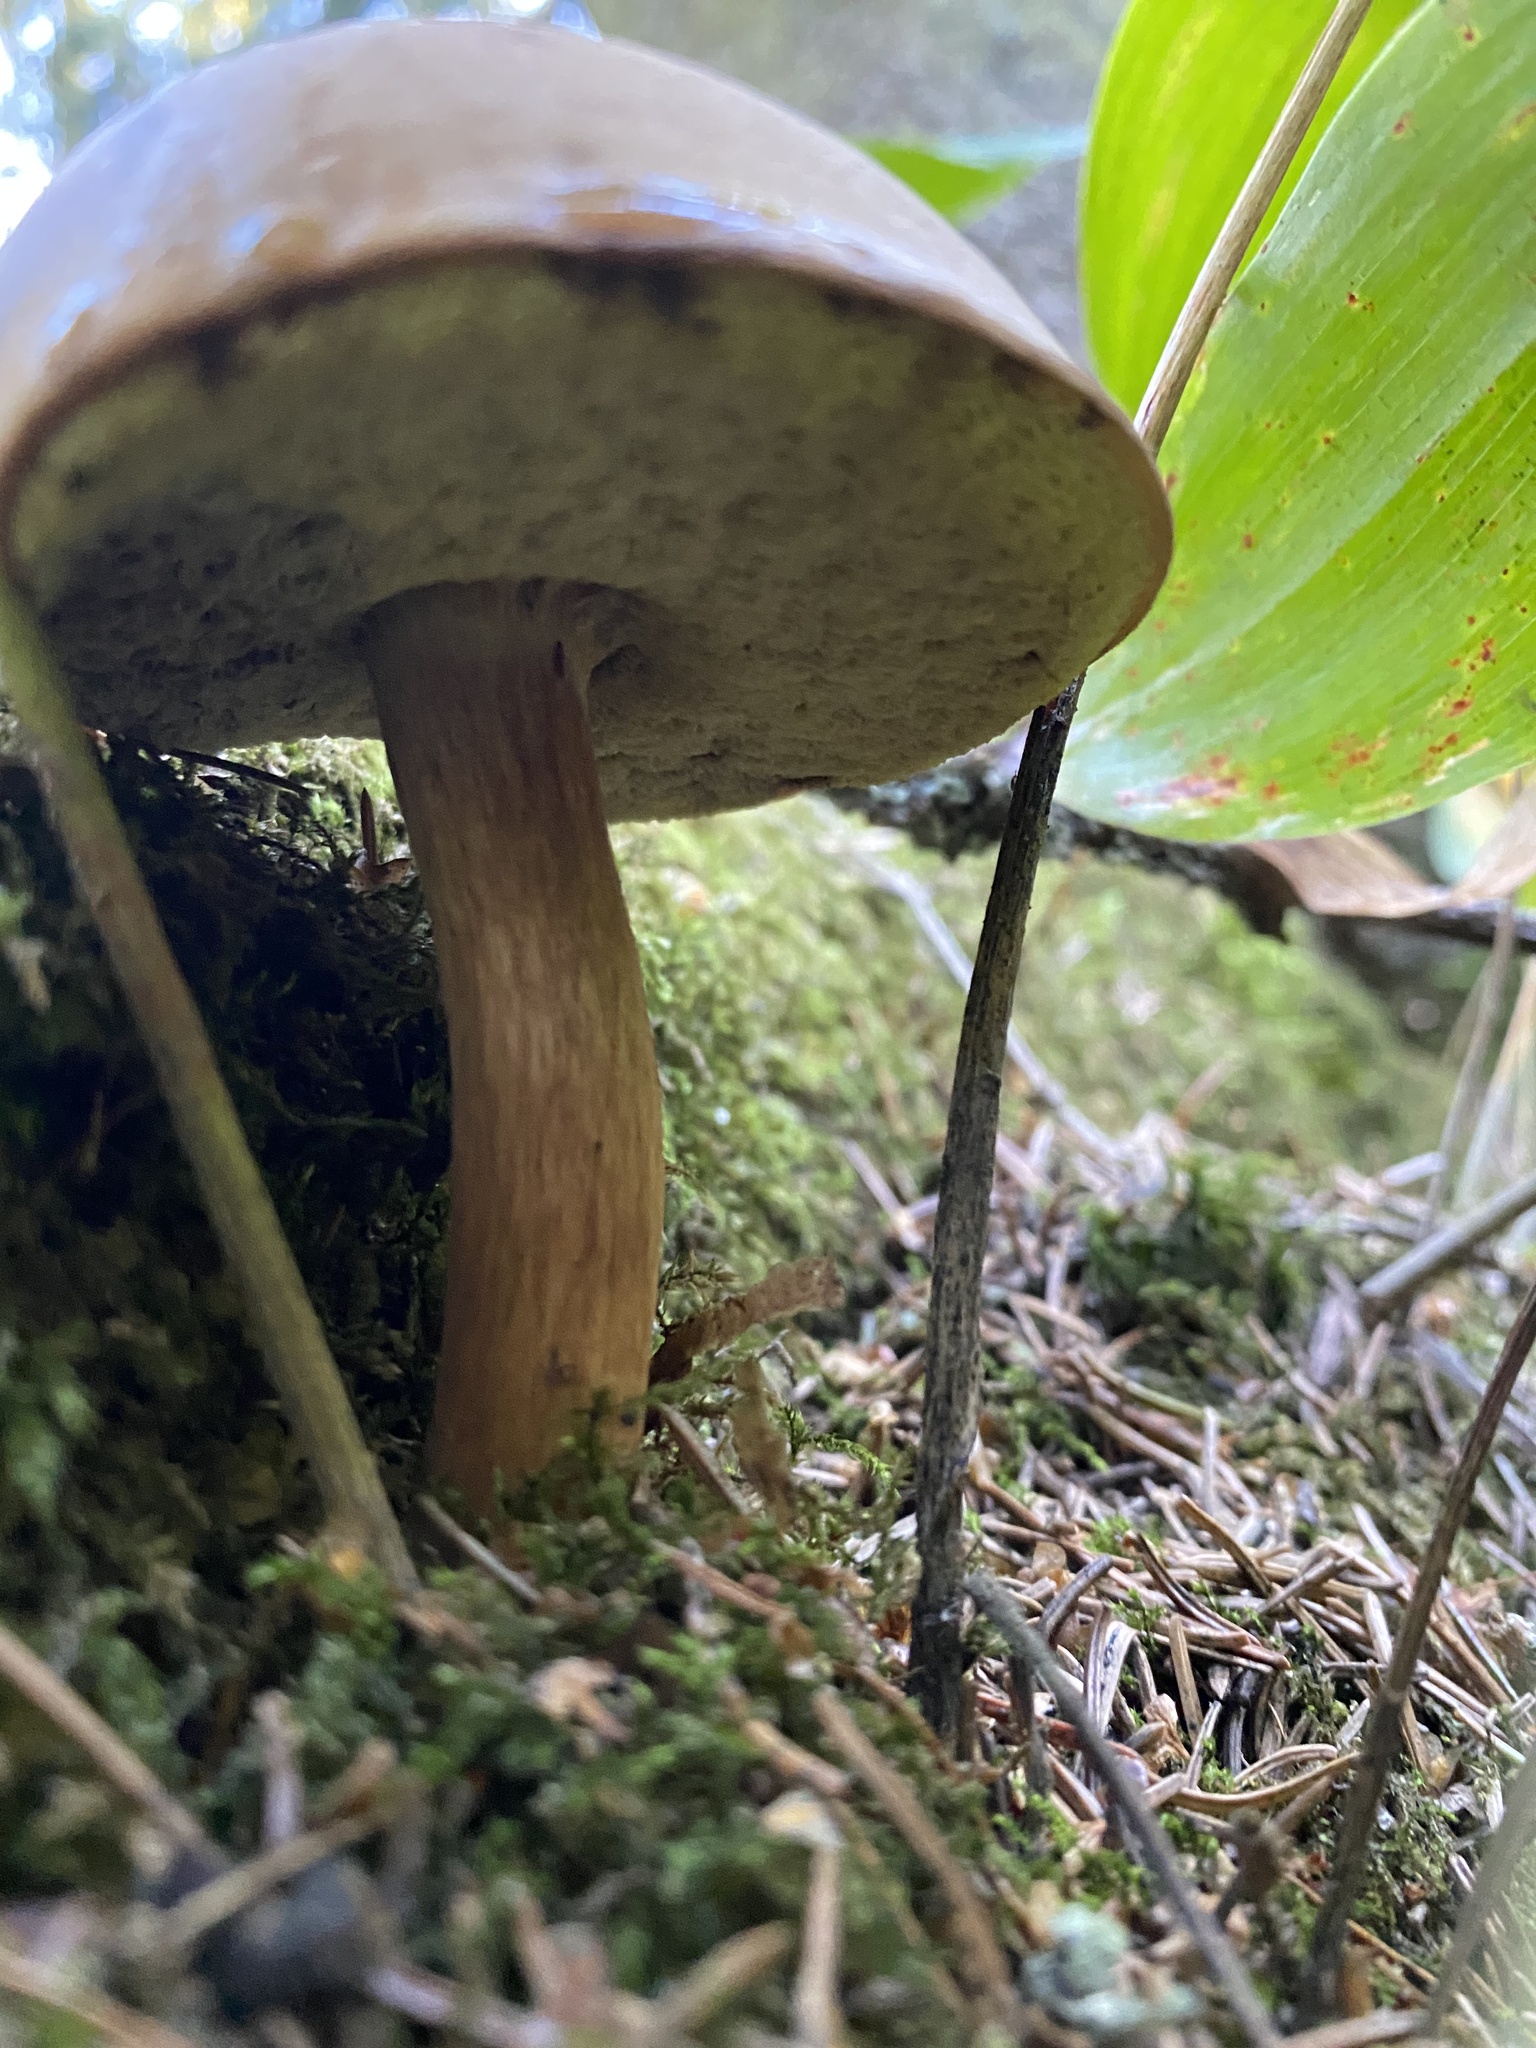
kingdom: Fungi
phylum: Basidiomycota
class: Agaricomycetes
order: Boletales
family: Boletaceae
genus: Imleria
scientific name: Imleria badia
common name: Bay bolete
